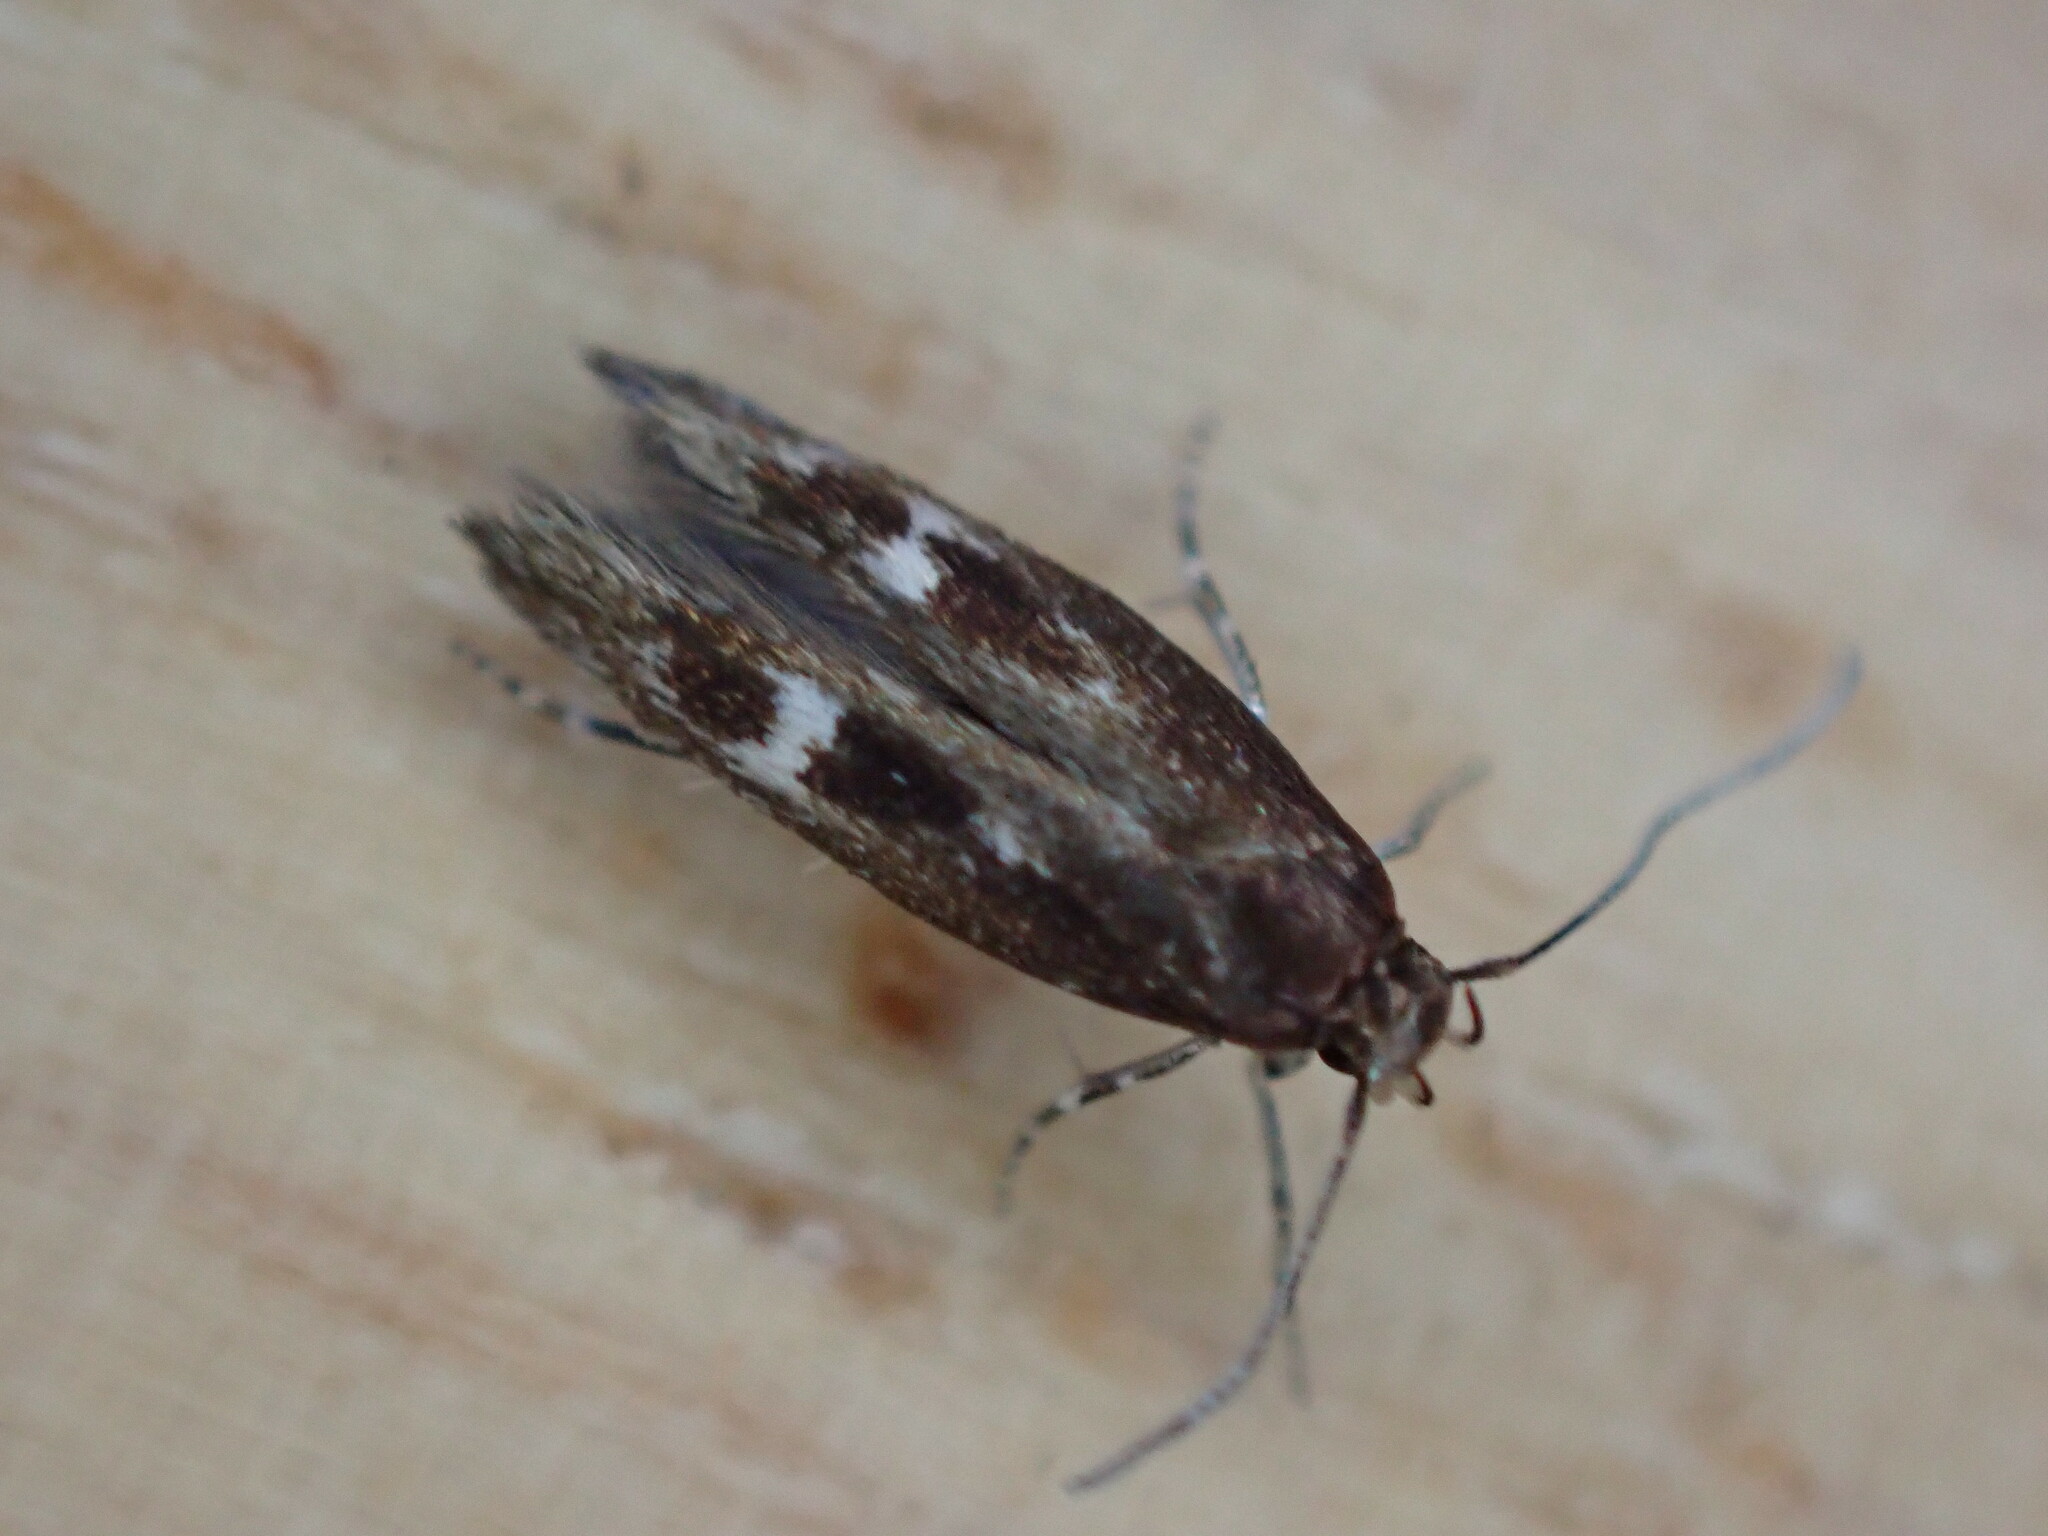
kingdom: Animalia
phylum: Arthropoda
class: Insecta
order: Lepidoptera
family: Momphidae
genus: Mompha
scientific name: Mompha langiella
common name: Clouded cosmet
